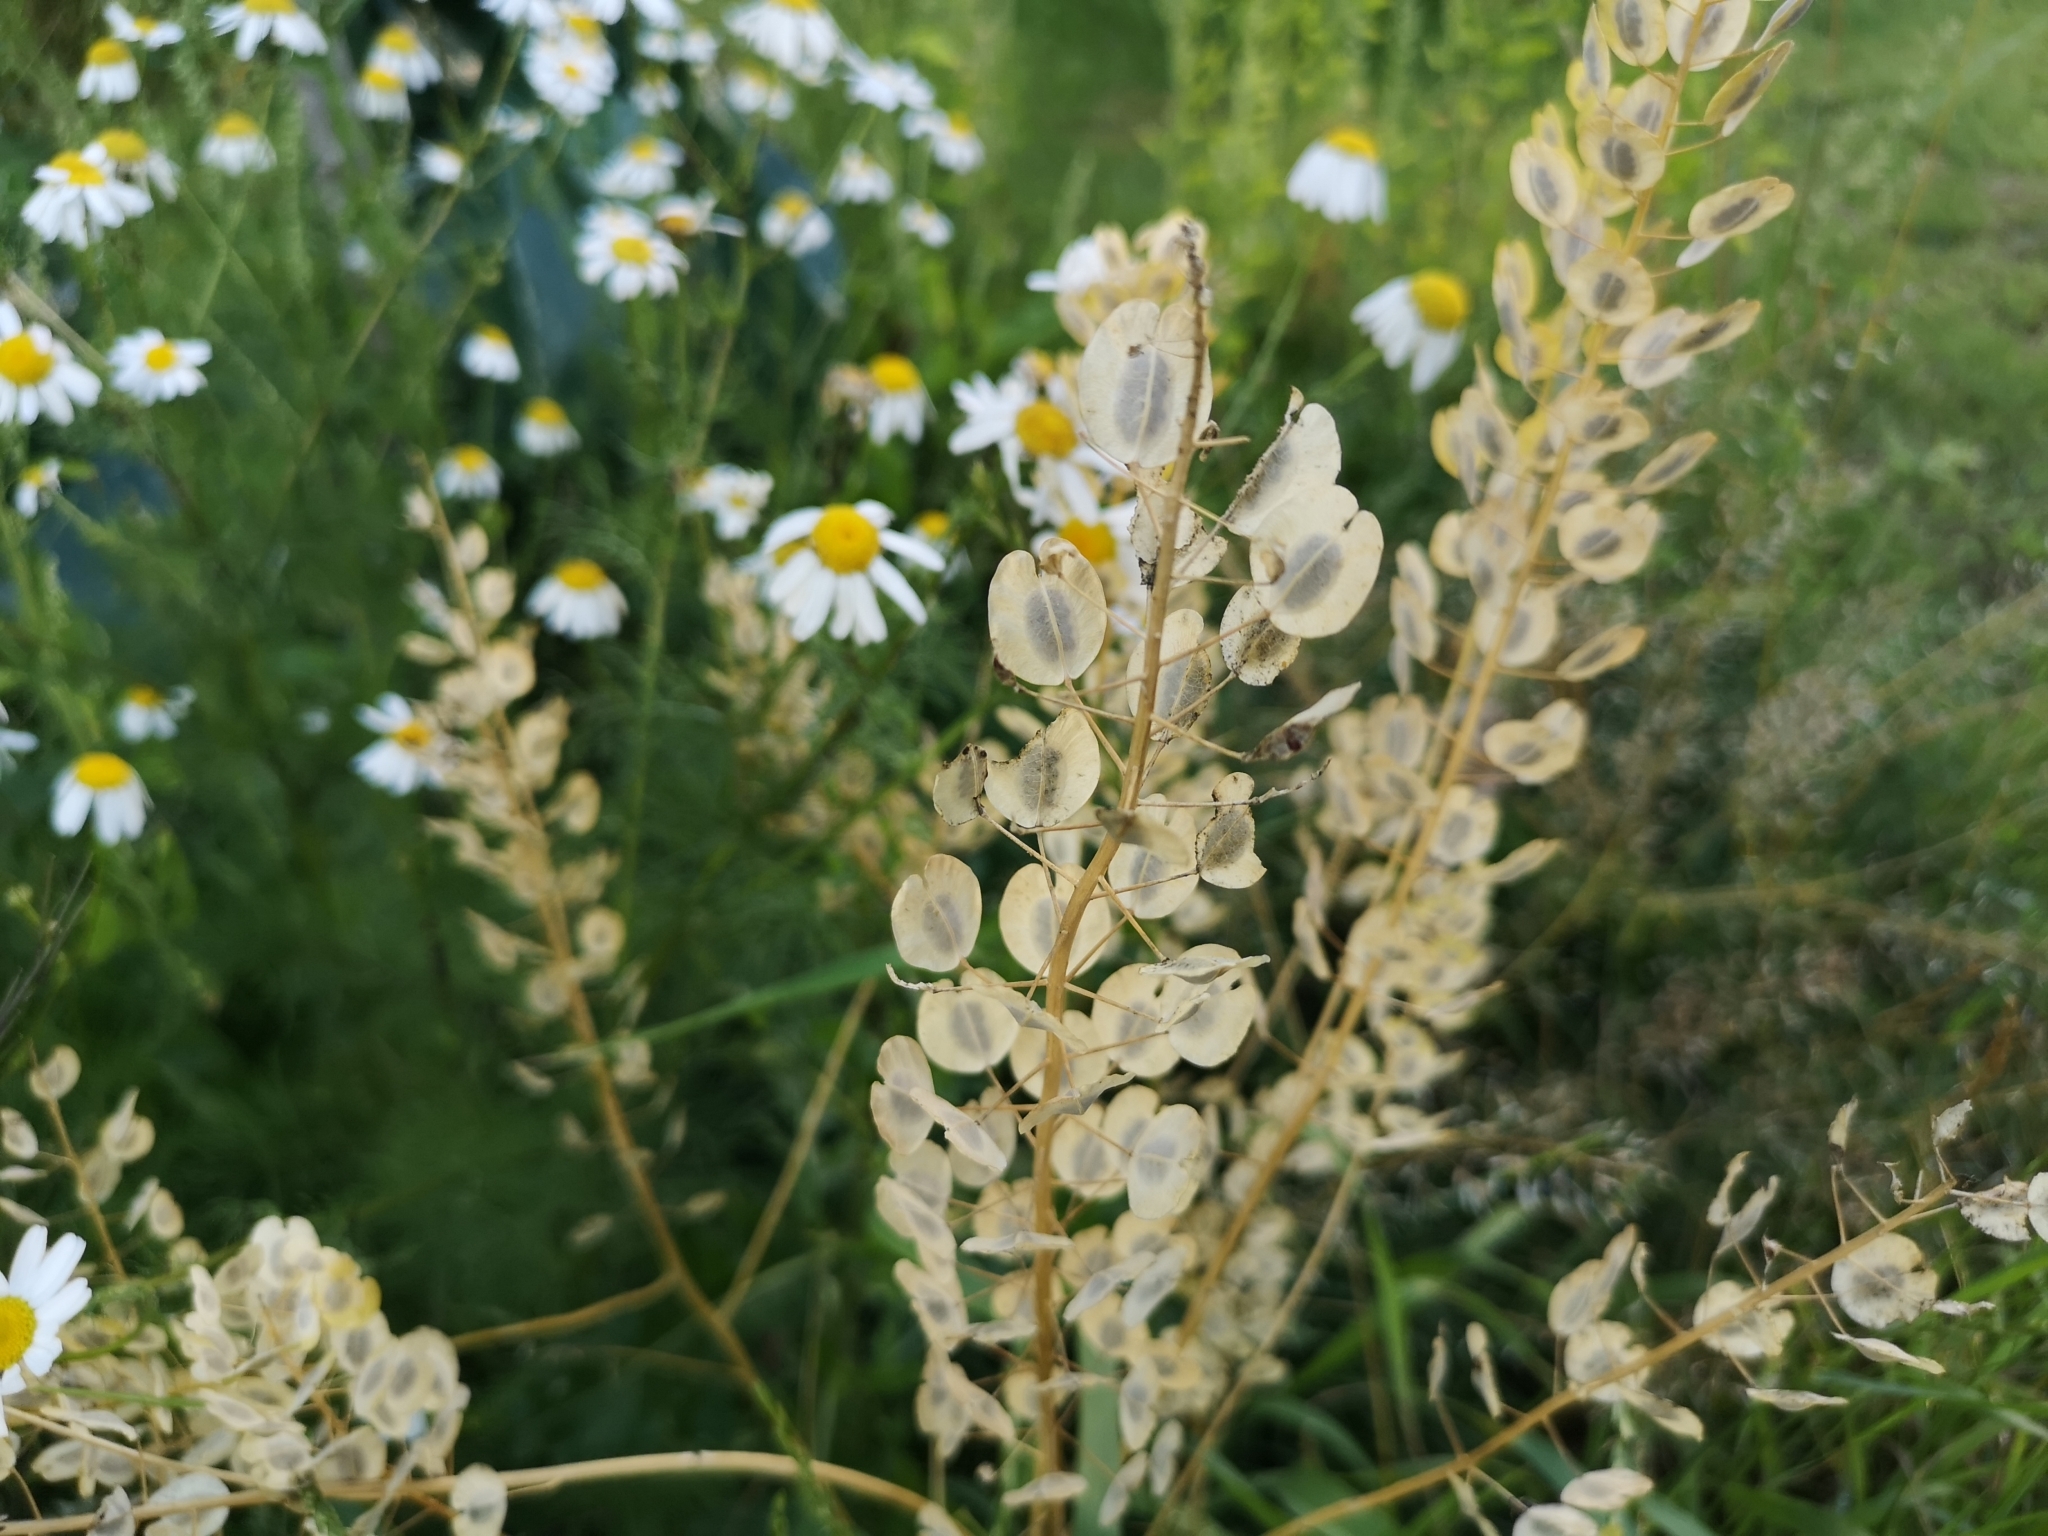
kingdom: Plantae
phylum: Tracheophyta
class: Magnoliopsida
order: Brassicales
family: Brassicaceae
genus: Thlaspi
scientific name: Thlaspi arvense
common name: Field pennycress
